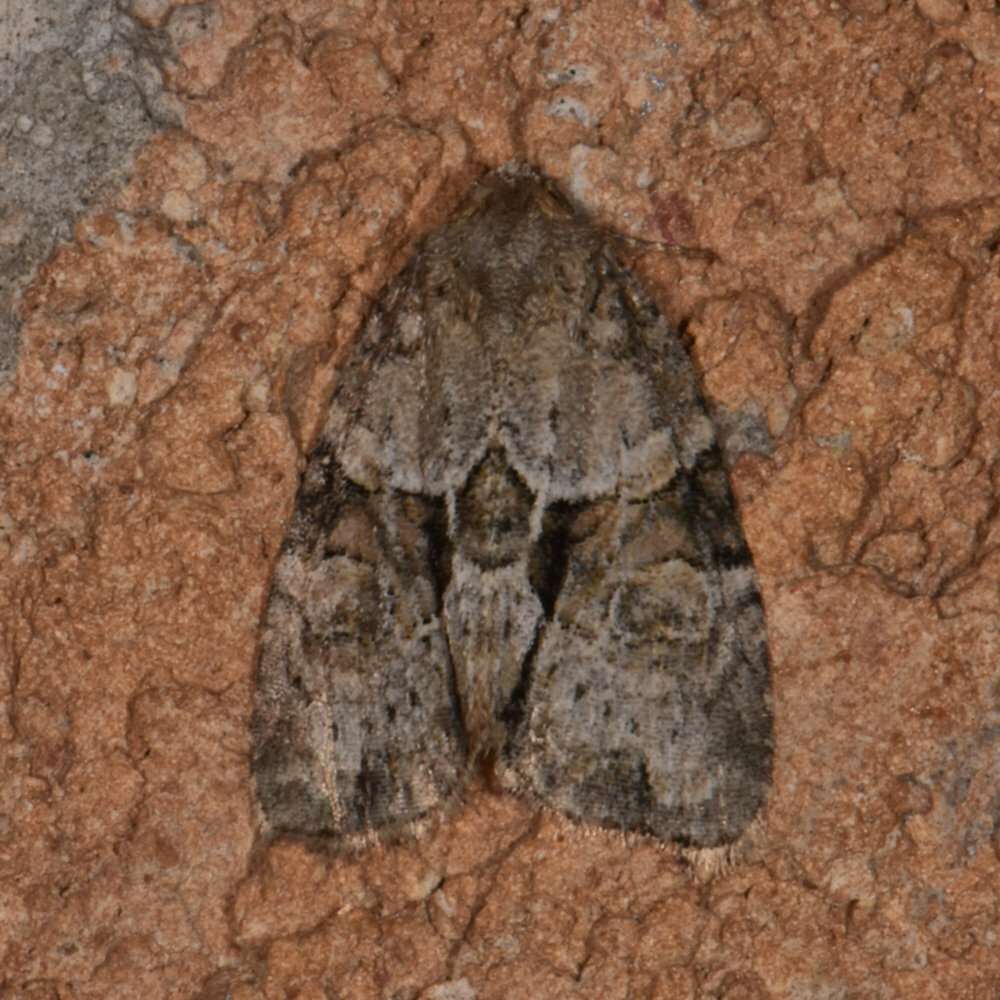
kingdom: Animalia
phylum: Arthropoda
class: Insecta
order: Lepidoptera
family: Noctuidae
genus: Neoligia
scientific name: Neoligia exhausta
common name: Exhausted brocade
